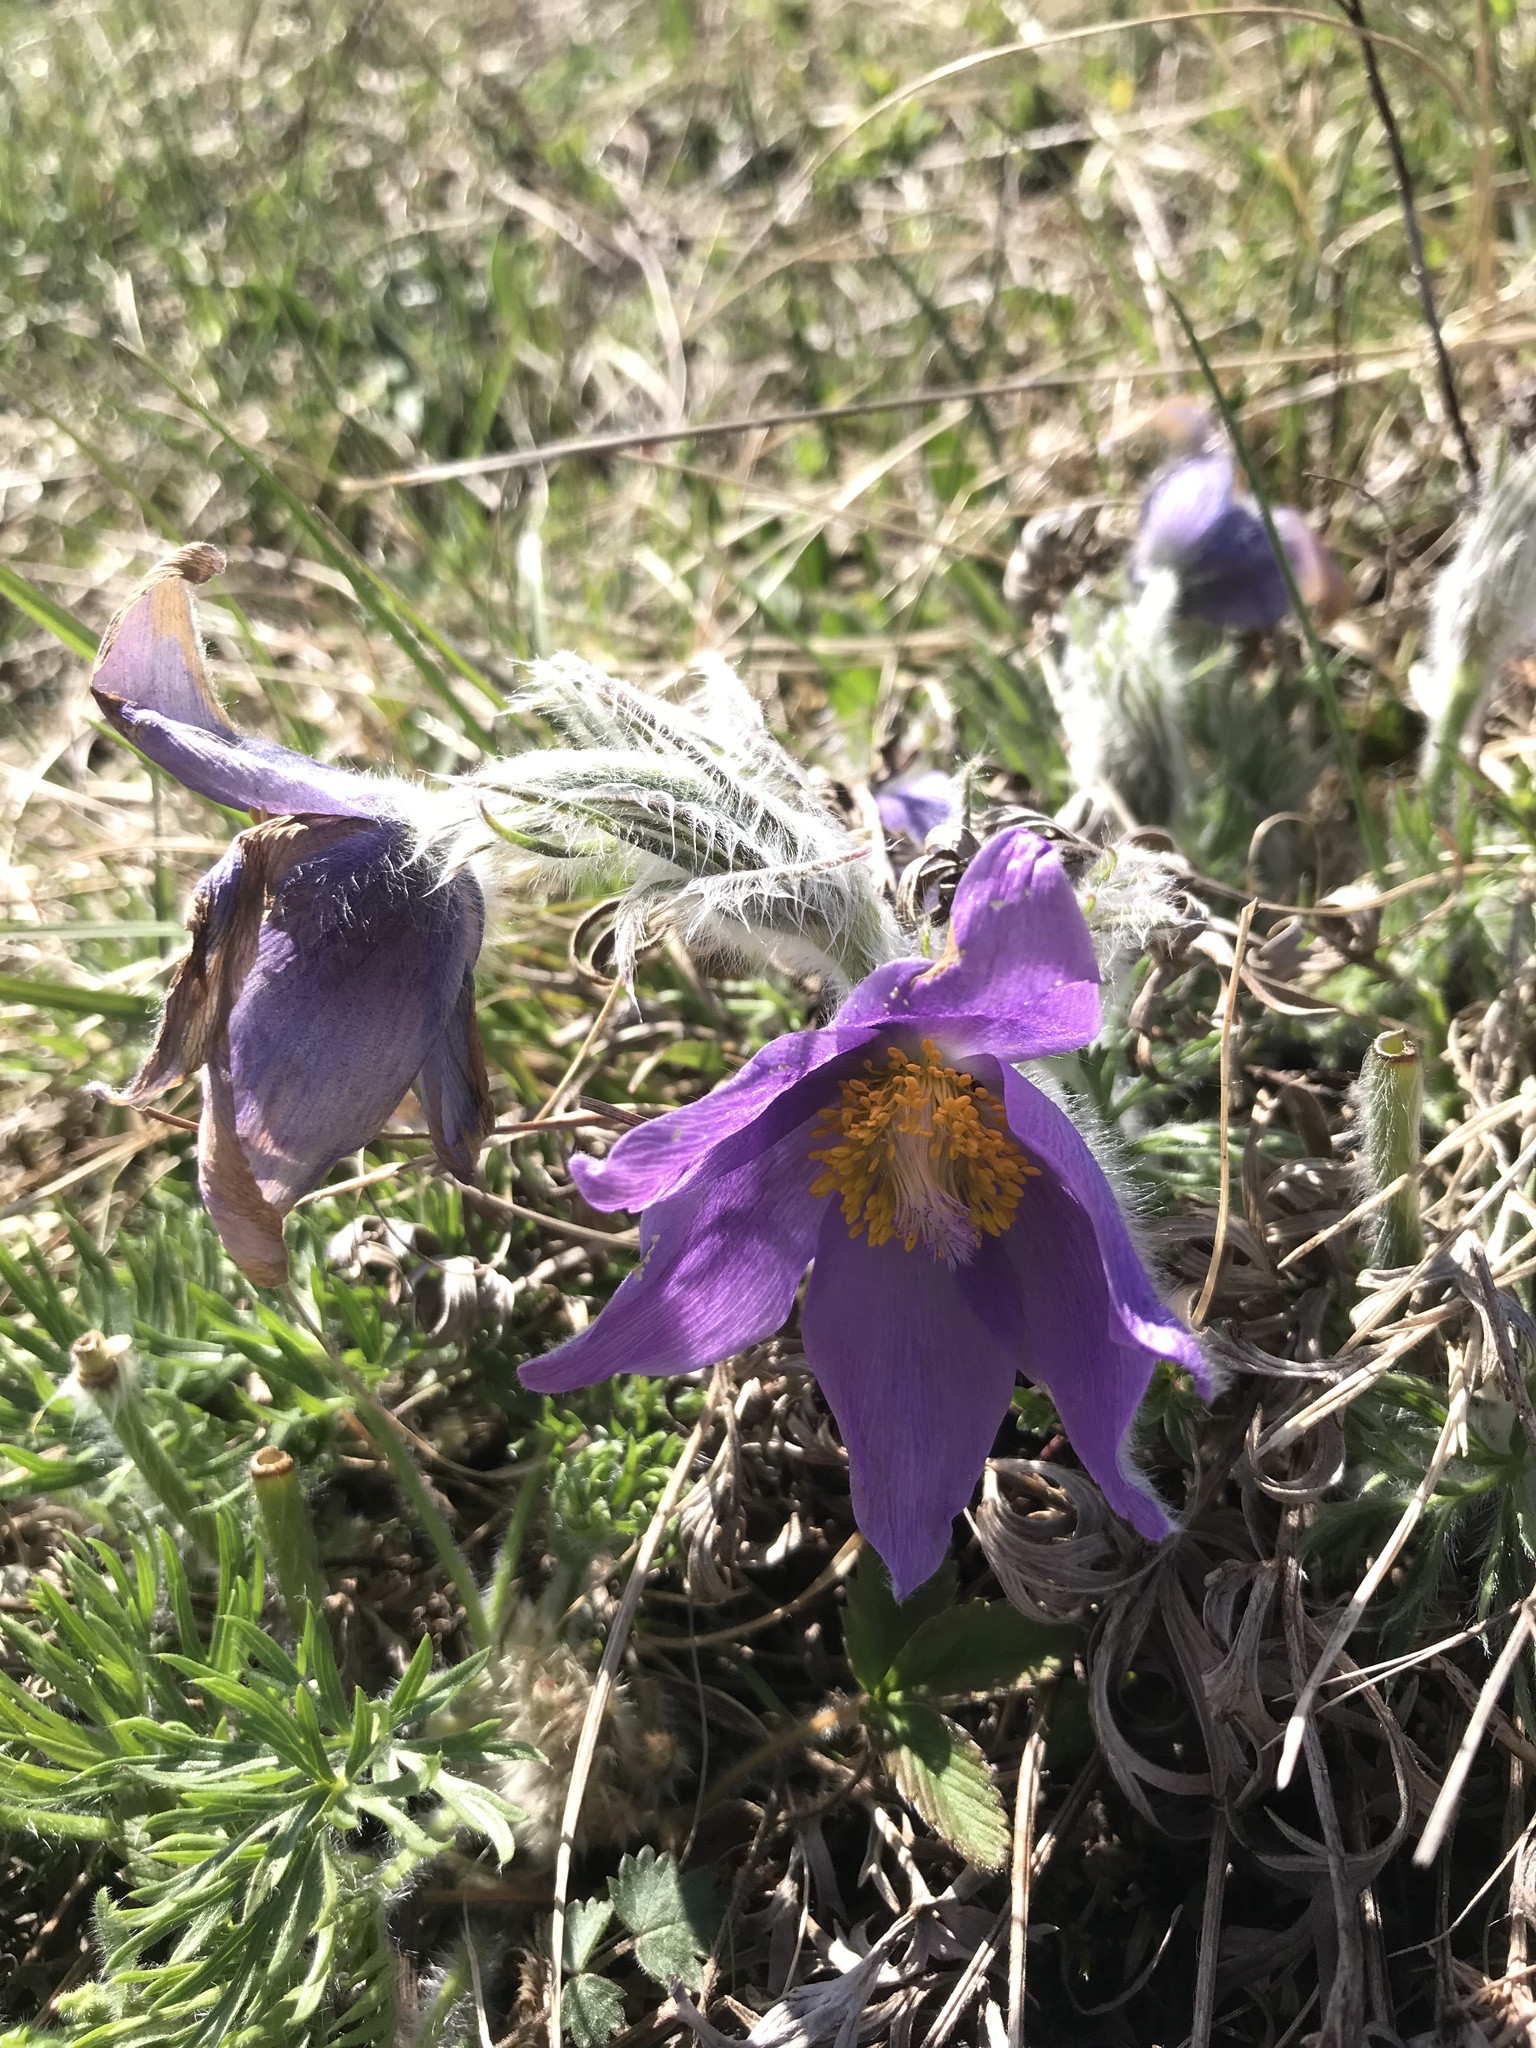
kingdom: Plantae
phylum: Tracheophyta
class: Magnoliopsida
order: Ranunculales
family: Ranunculaceae
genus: Pulsatilla
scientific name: Pulsatilla grandis
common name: Greater pasque flower
